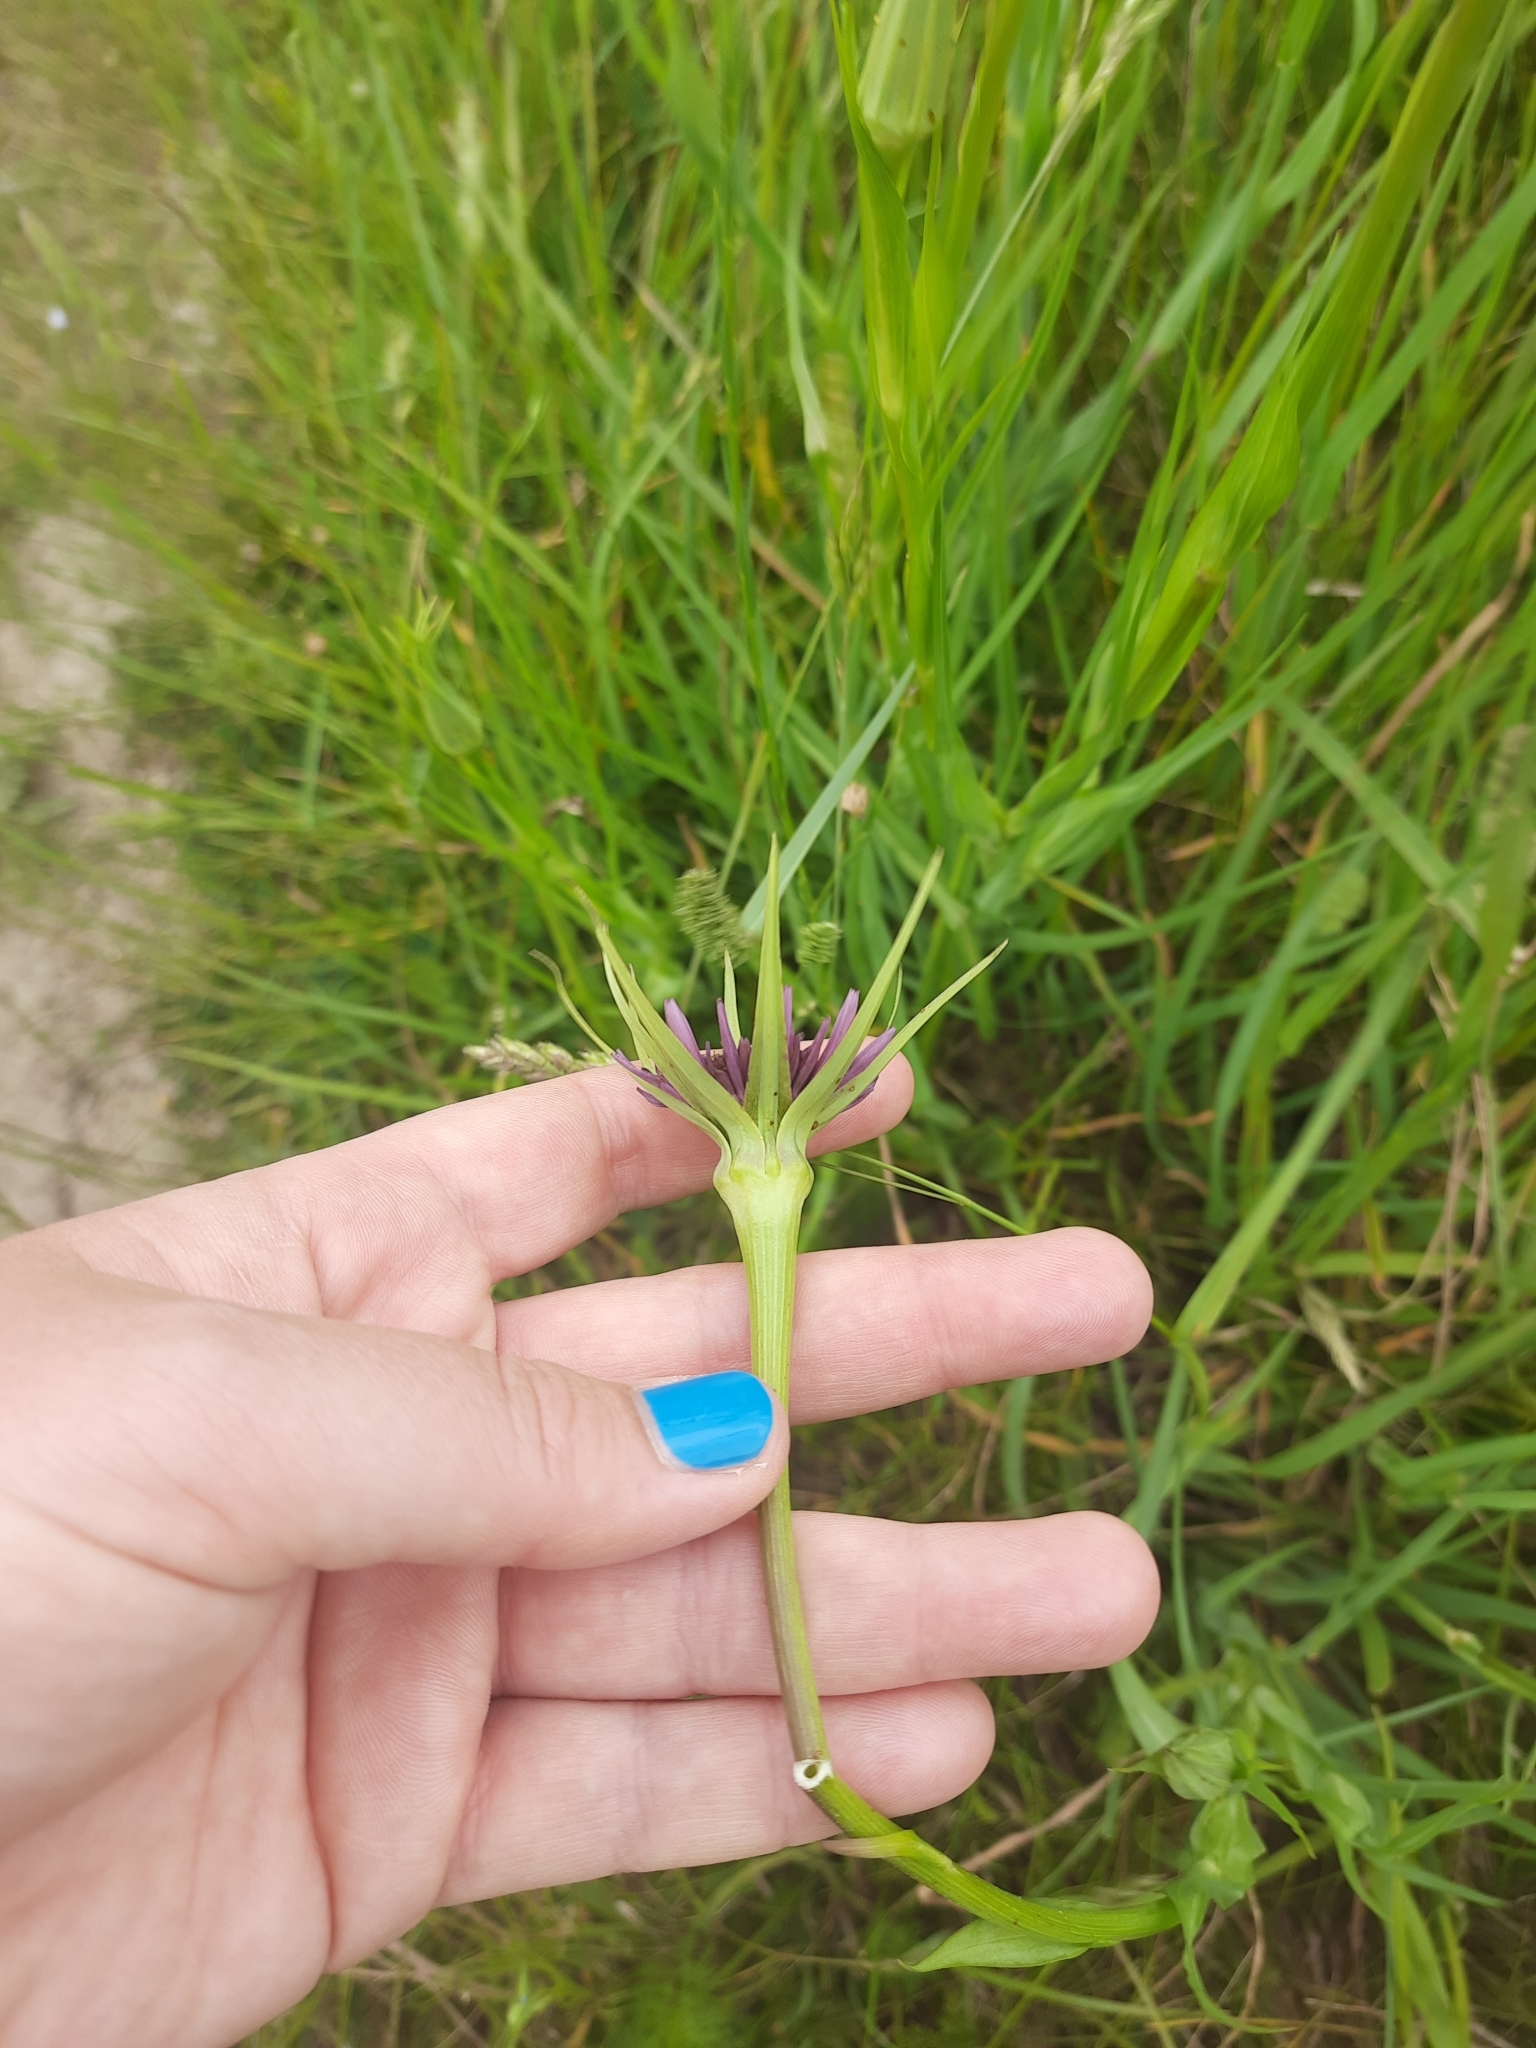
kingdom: Plantae
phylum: Tracheophyta
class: Magnoliopsida
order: Asterales
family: Asteraceae
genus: Tragopogon
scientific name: Tragopogon porrifolius
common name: Salsify
